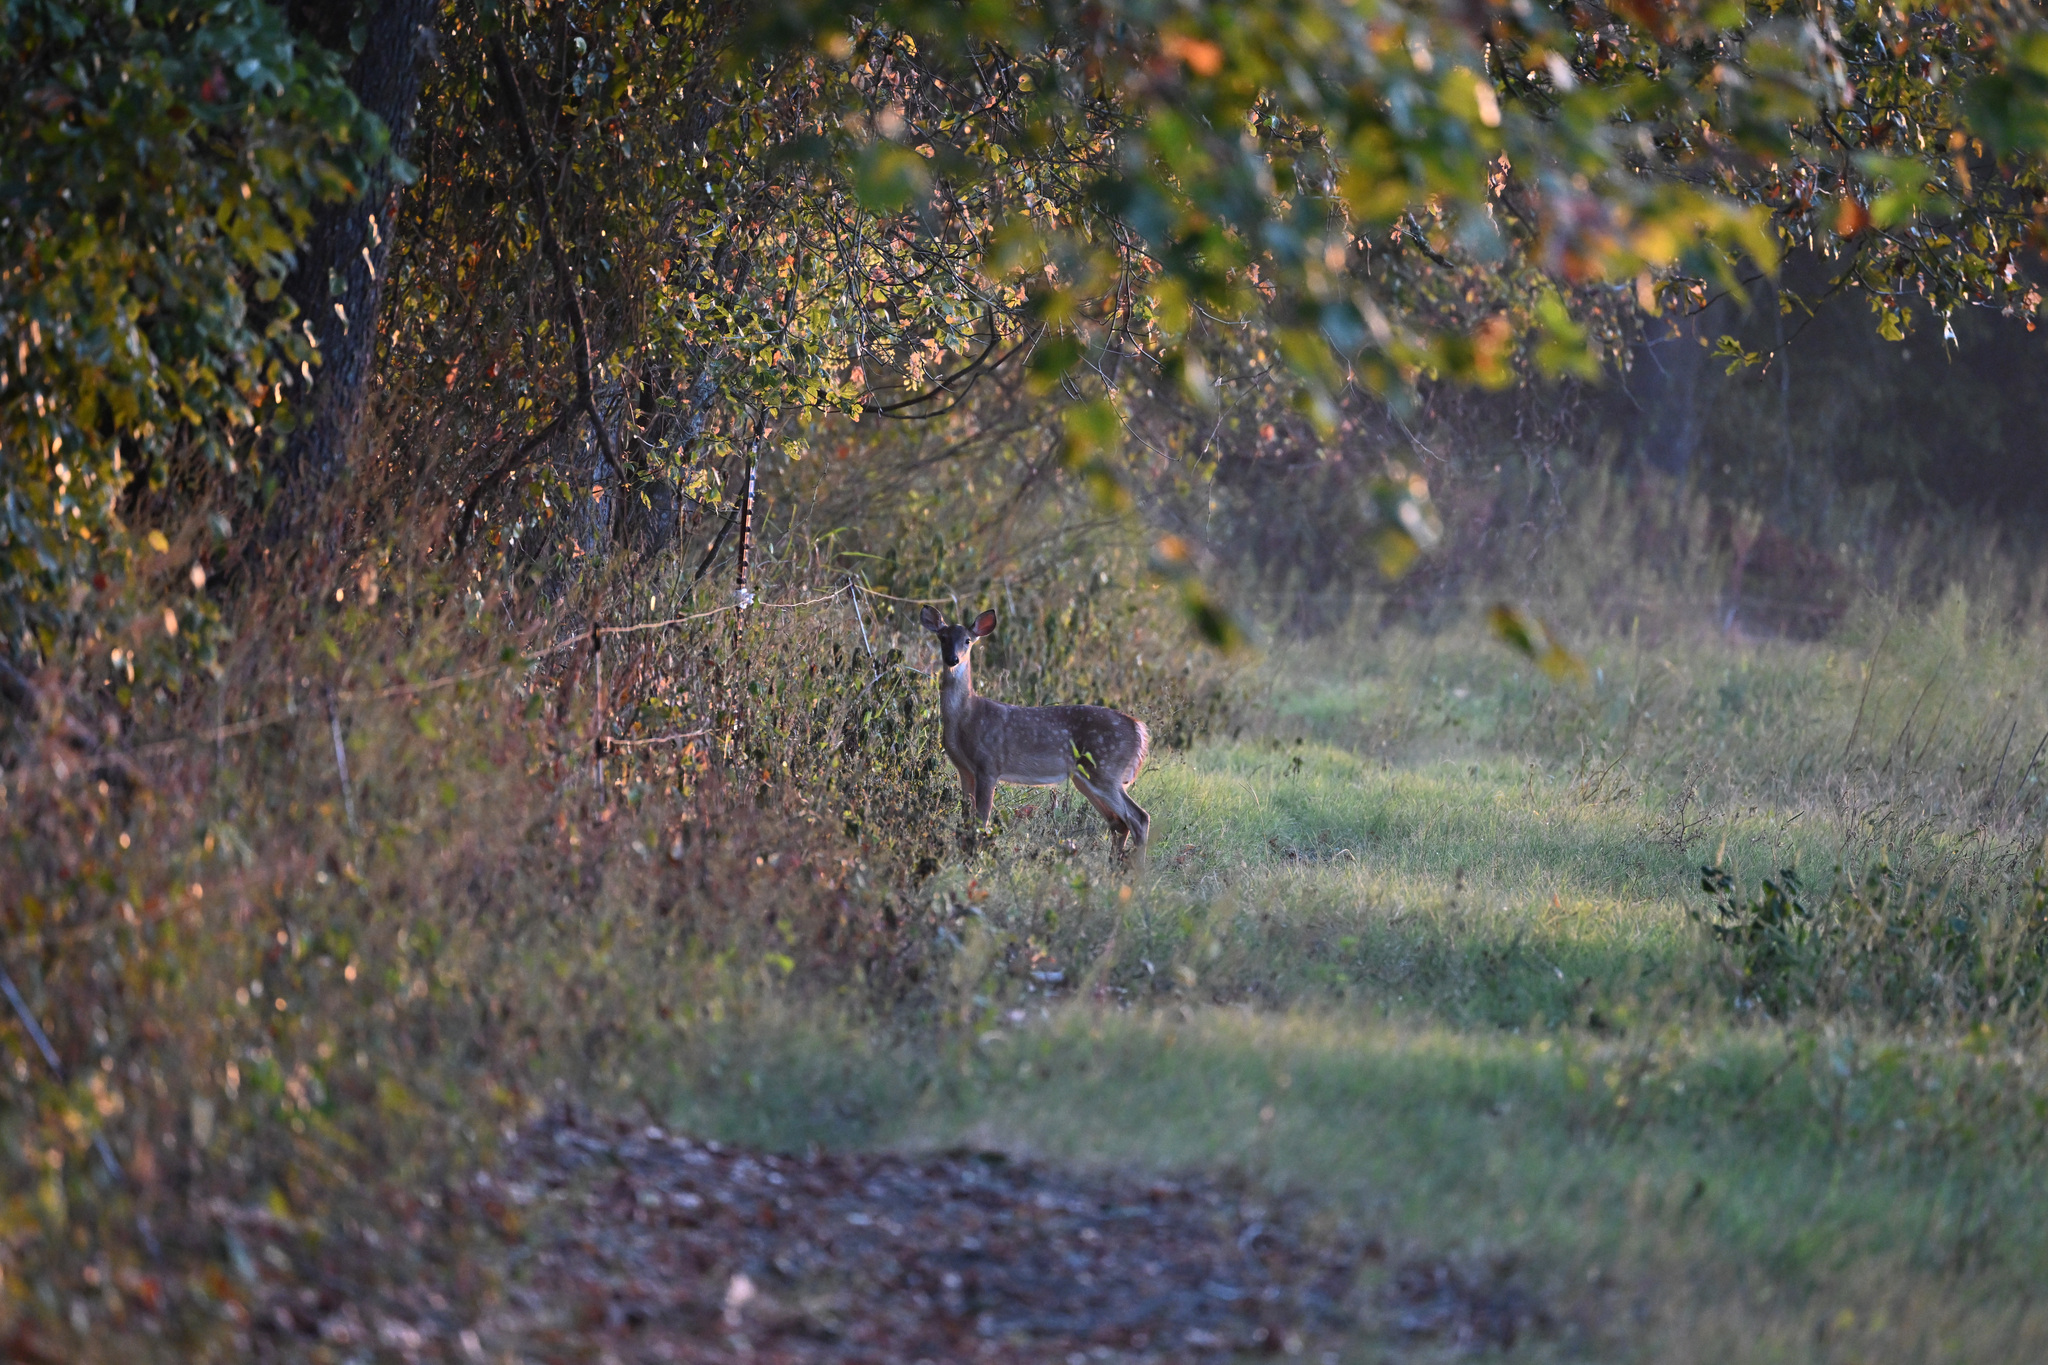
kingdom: Animalia
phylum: Chordata
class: Mammalia
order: Artiodactyla
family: Cervidae
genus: Odocoileus
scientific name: Odocoileus virginianus
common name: White-tailed deer
